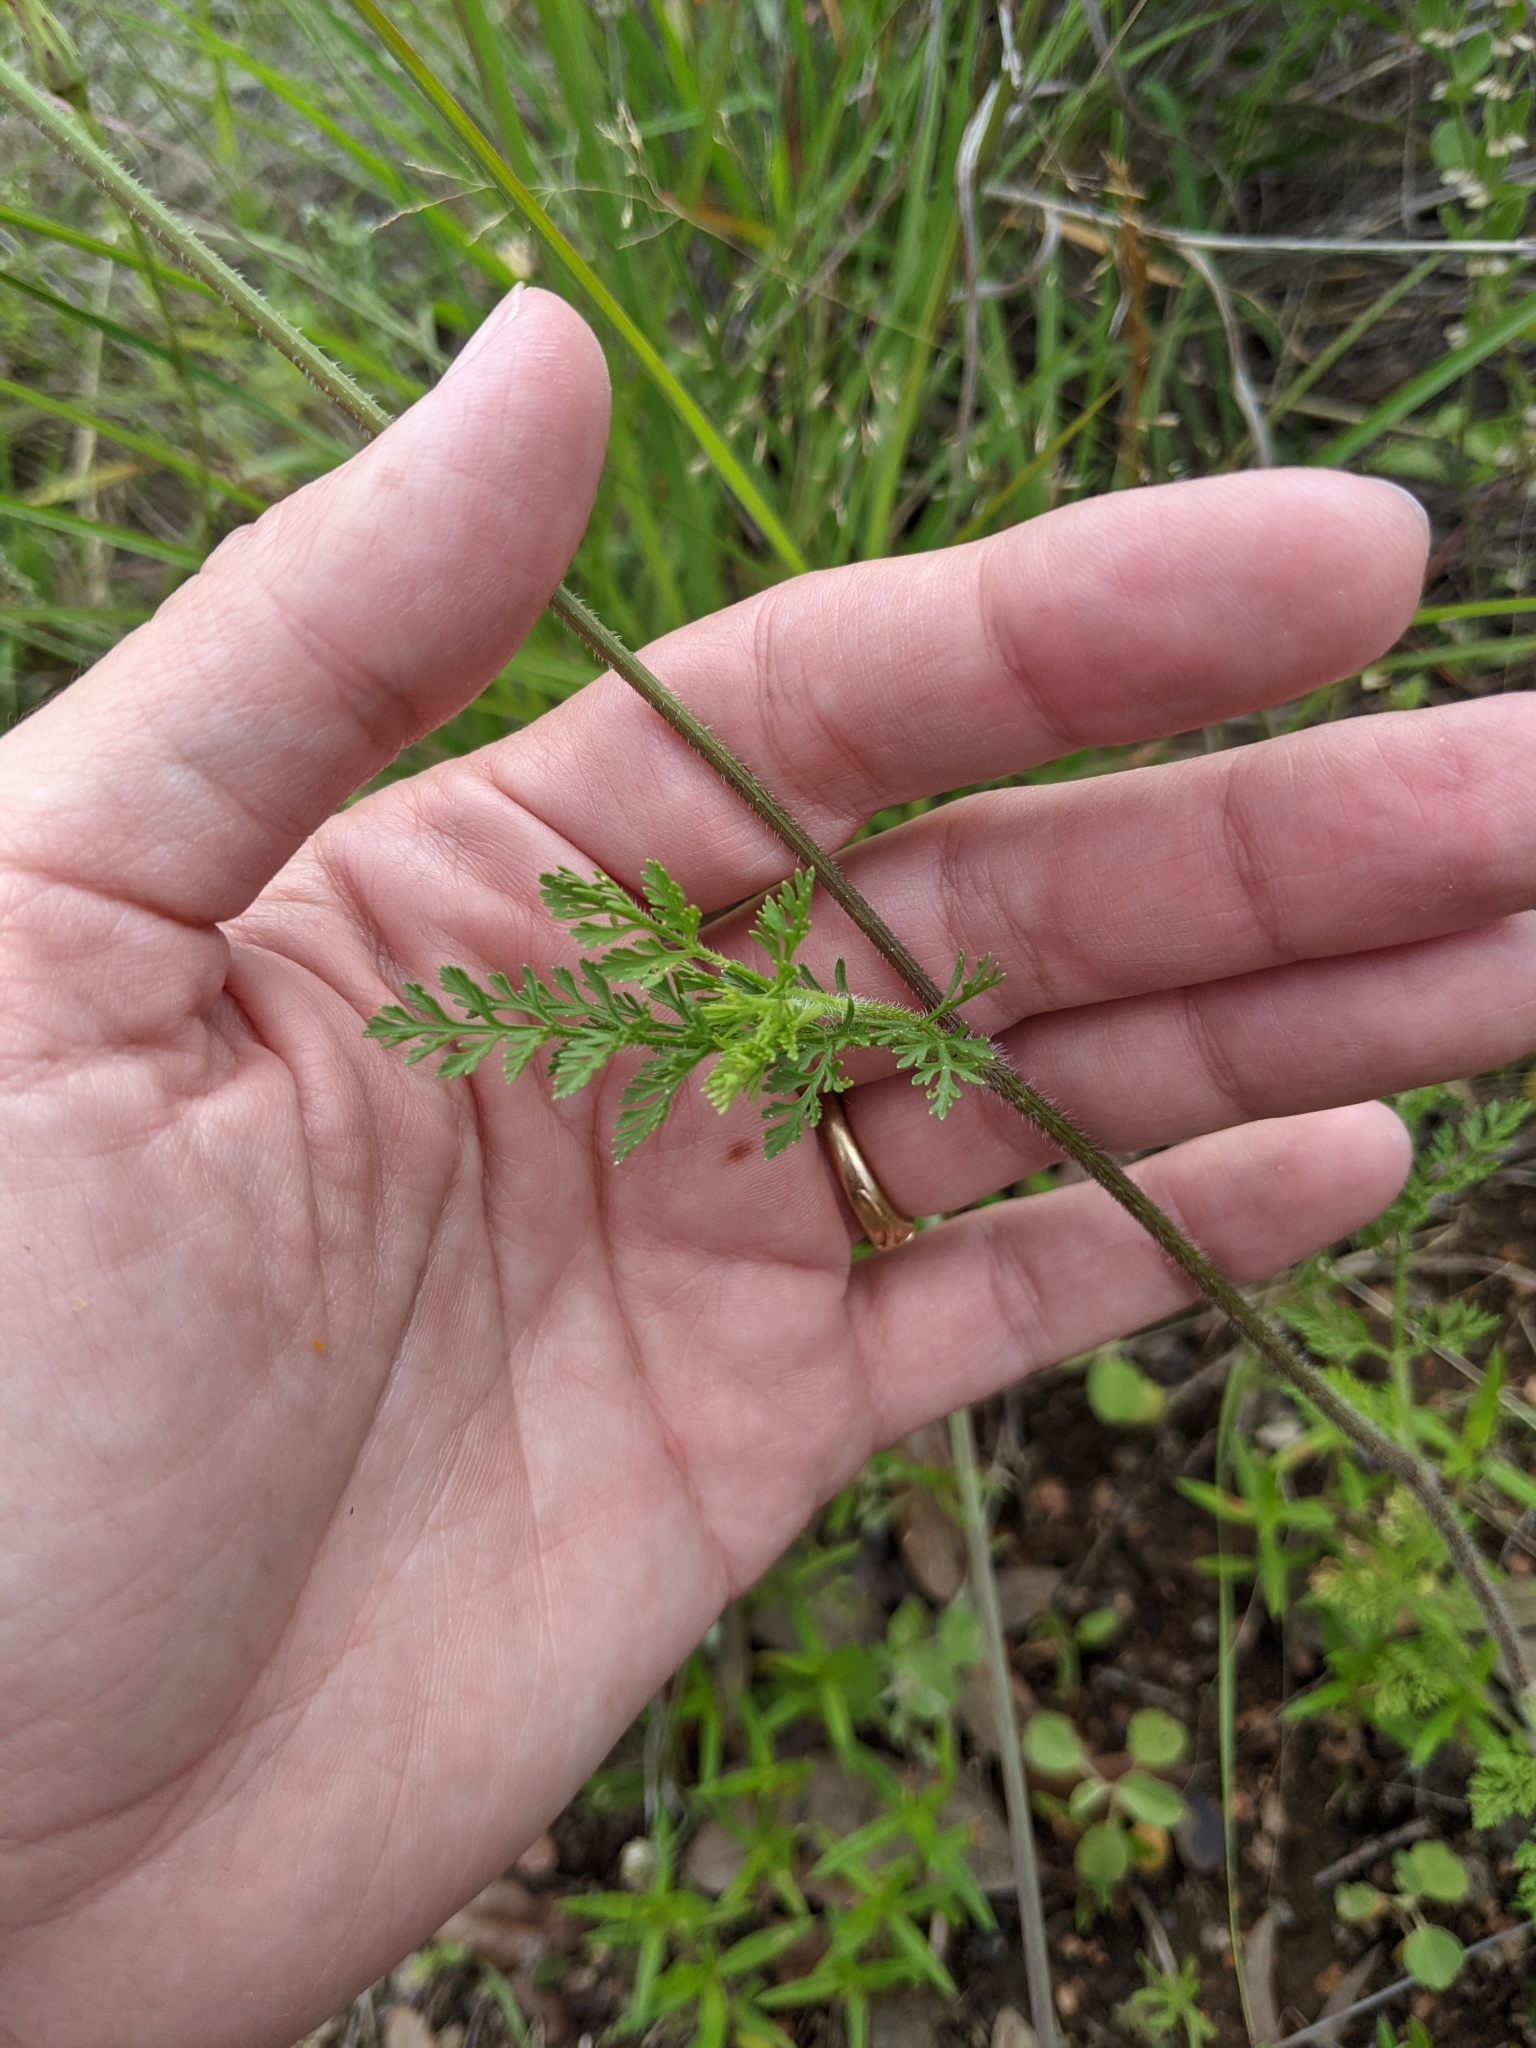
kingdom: Plantae
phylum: Tracheophyta
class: Magnoliopsida
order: Apiales
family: Apiaceae
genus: Daucus
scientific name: Daucus pusillus
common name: Southwest wild carrot
